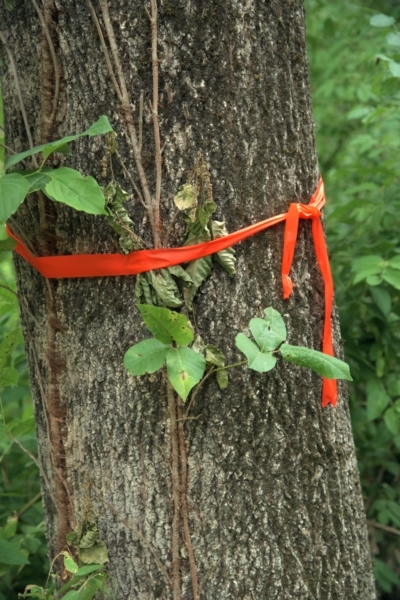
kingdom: Plantae
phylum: Tracheophyta
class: Magnoliopsida
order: Lamiales
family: Oleaceae
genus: Fraxinus
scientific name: Fraxinus americana
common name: White ash
